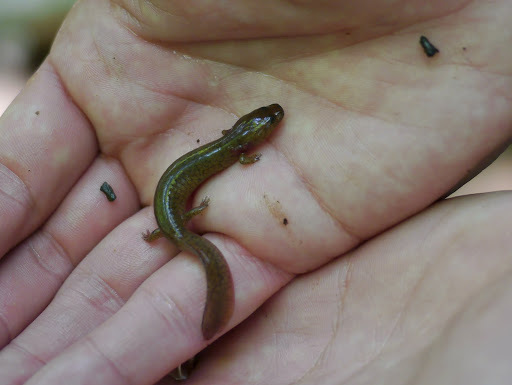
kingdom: Animalia
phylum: Chordata
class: Amphibia
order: Caudata
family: Plethodontidae
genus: Gyrinophilus
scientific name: Gyrinophilus porphyriticus
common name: Spring salamander
